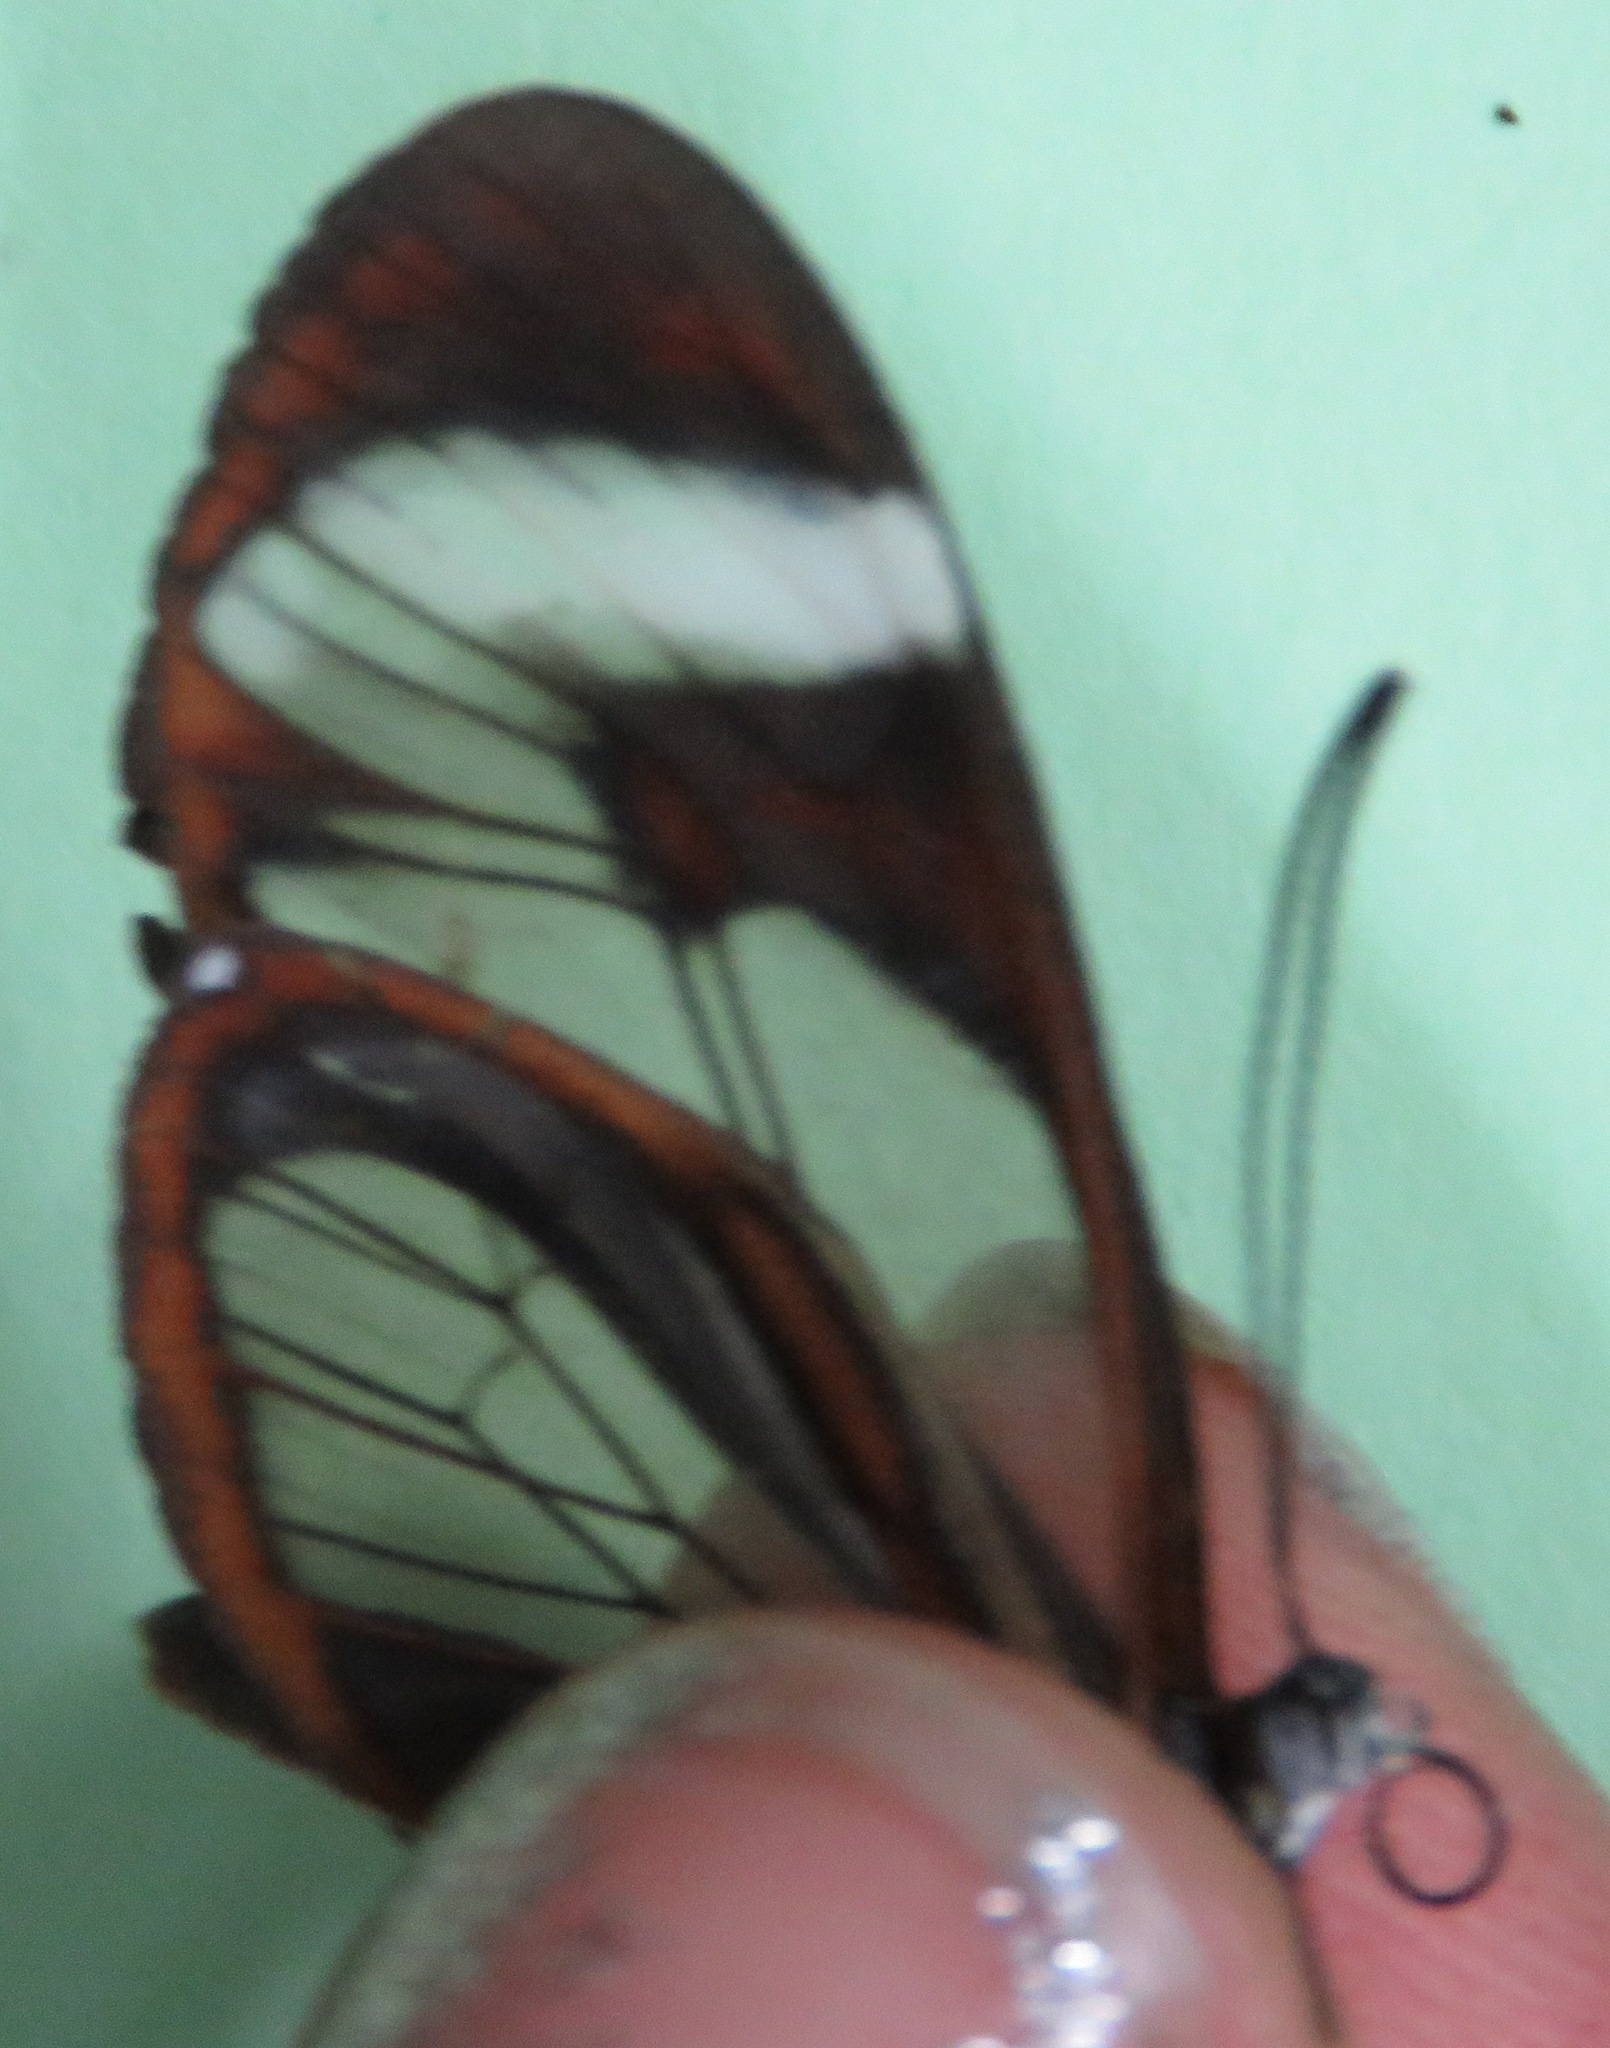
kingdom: Animalia
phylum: Arthropoda
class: Insecta
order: Lepidoptera
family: Nymphalidae
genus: Ithomia
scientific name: Ithomia patilla
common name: Patilla clearwing
